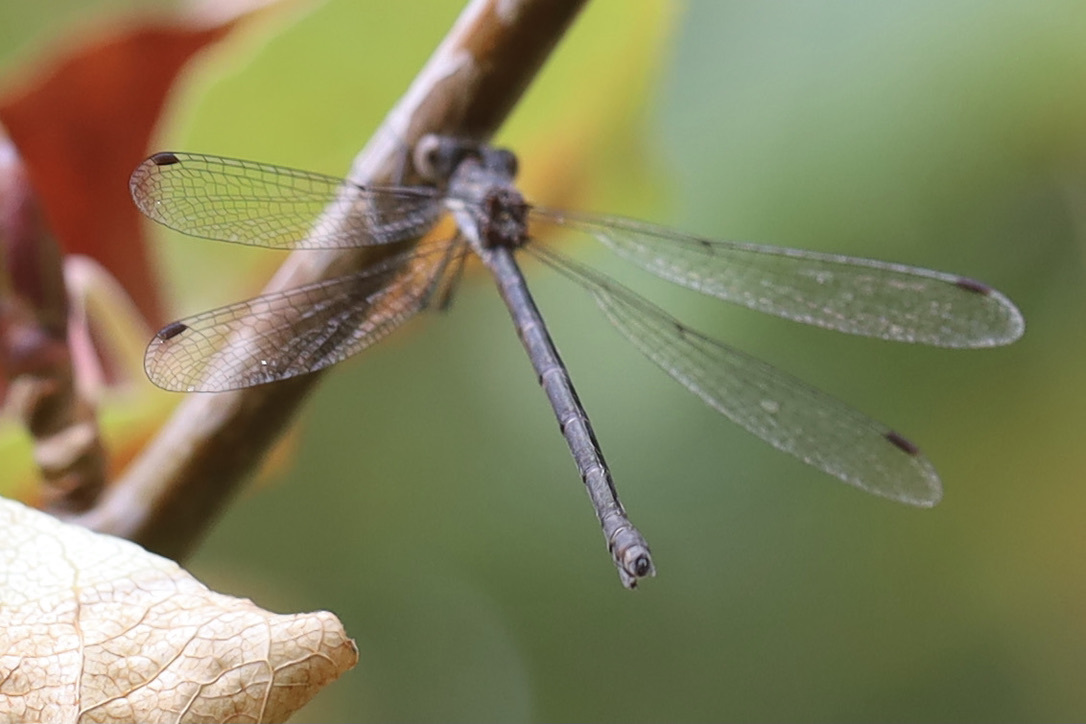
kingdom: Animalia
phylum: Arthropoda
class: Insecta
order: Odonata
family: Lestidae
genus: Lestes
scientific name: Lestes congener
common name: Spotted spreadwing
